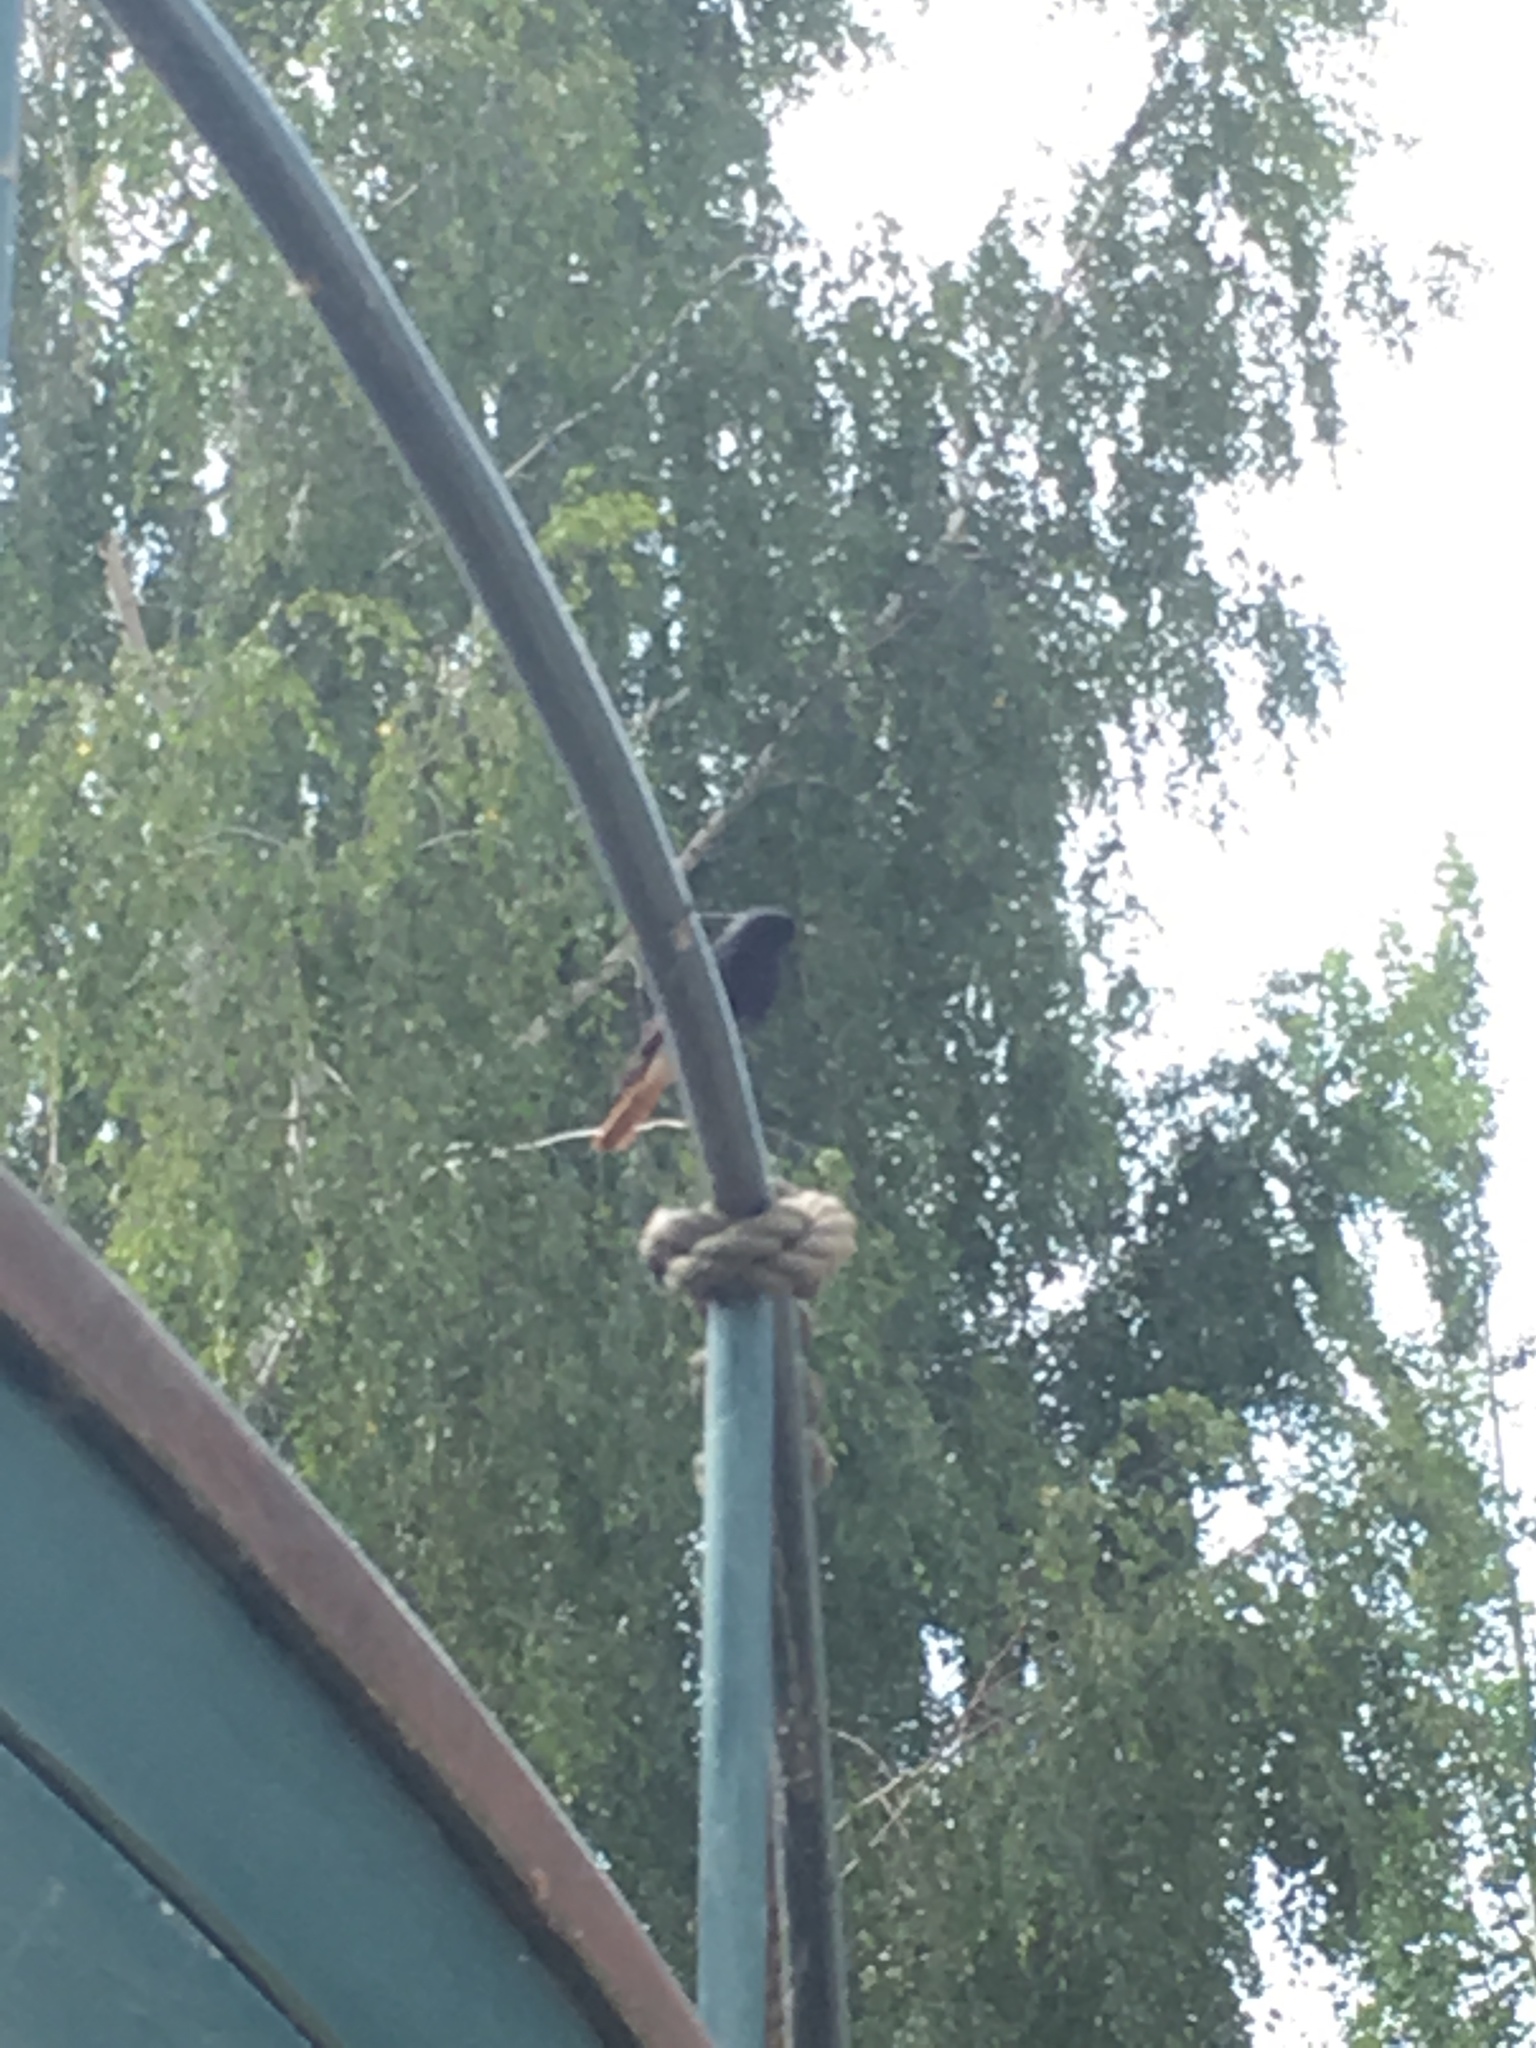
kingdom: Animalia
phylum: Chordata
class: Aves
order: Passeriformes
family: Muscicapidae
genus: Phoenicurus
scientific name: Phoenicurus ochruros
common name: Black redstart
